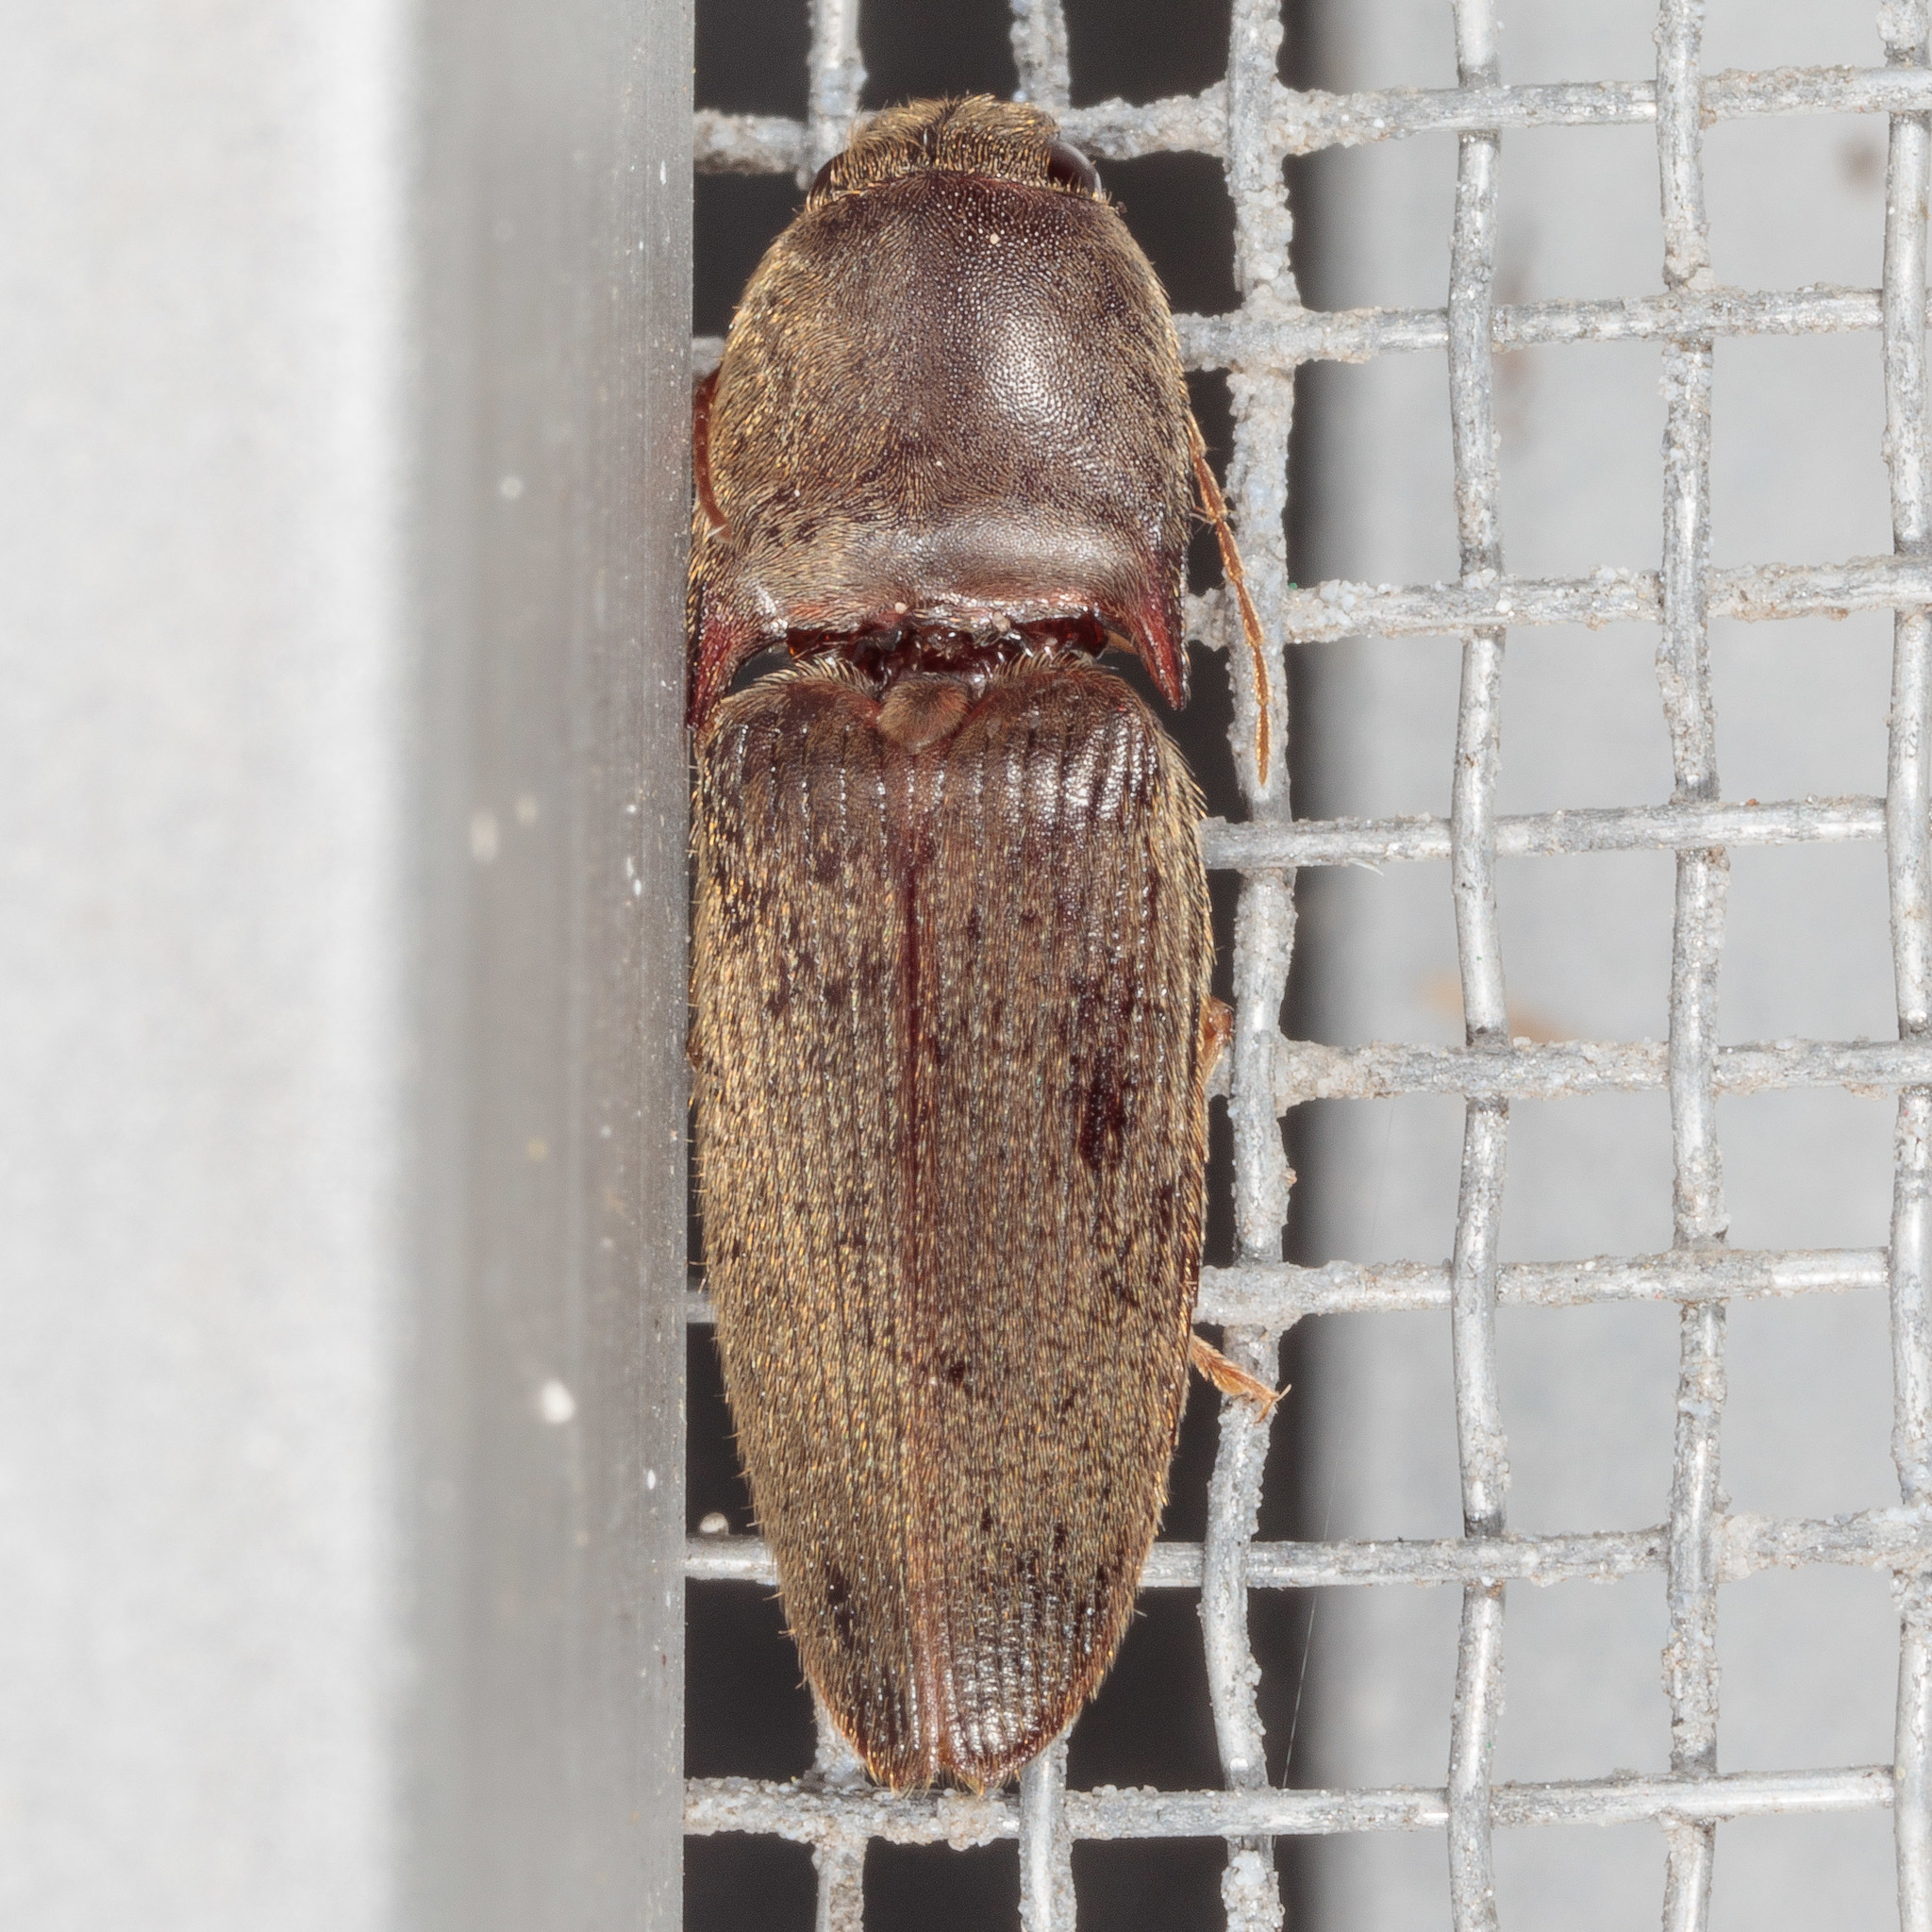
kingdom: Animalia
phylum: Arthropoda
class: Insecta
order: Coleoptera
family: Elateridae
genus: Conoderus
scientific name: Conoderus exsul
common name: Click beetle
